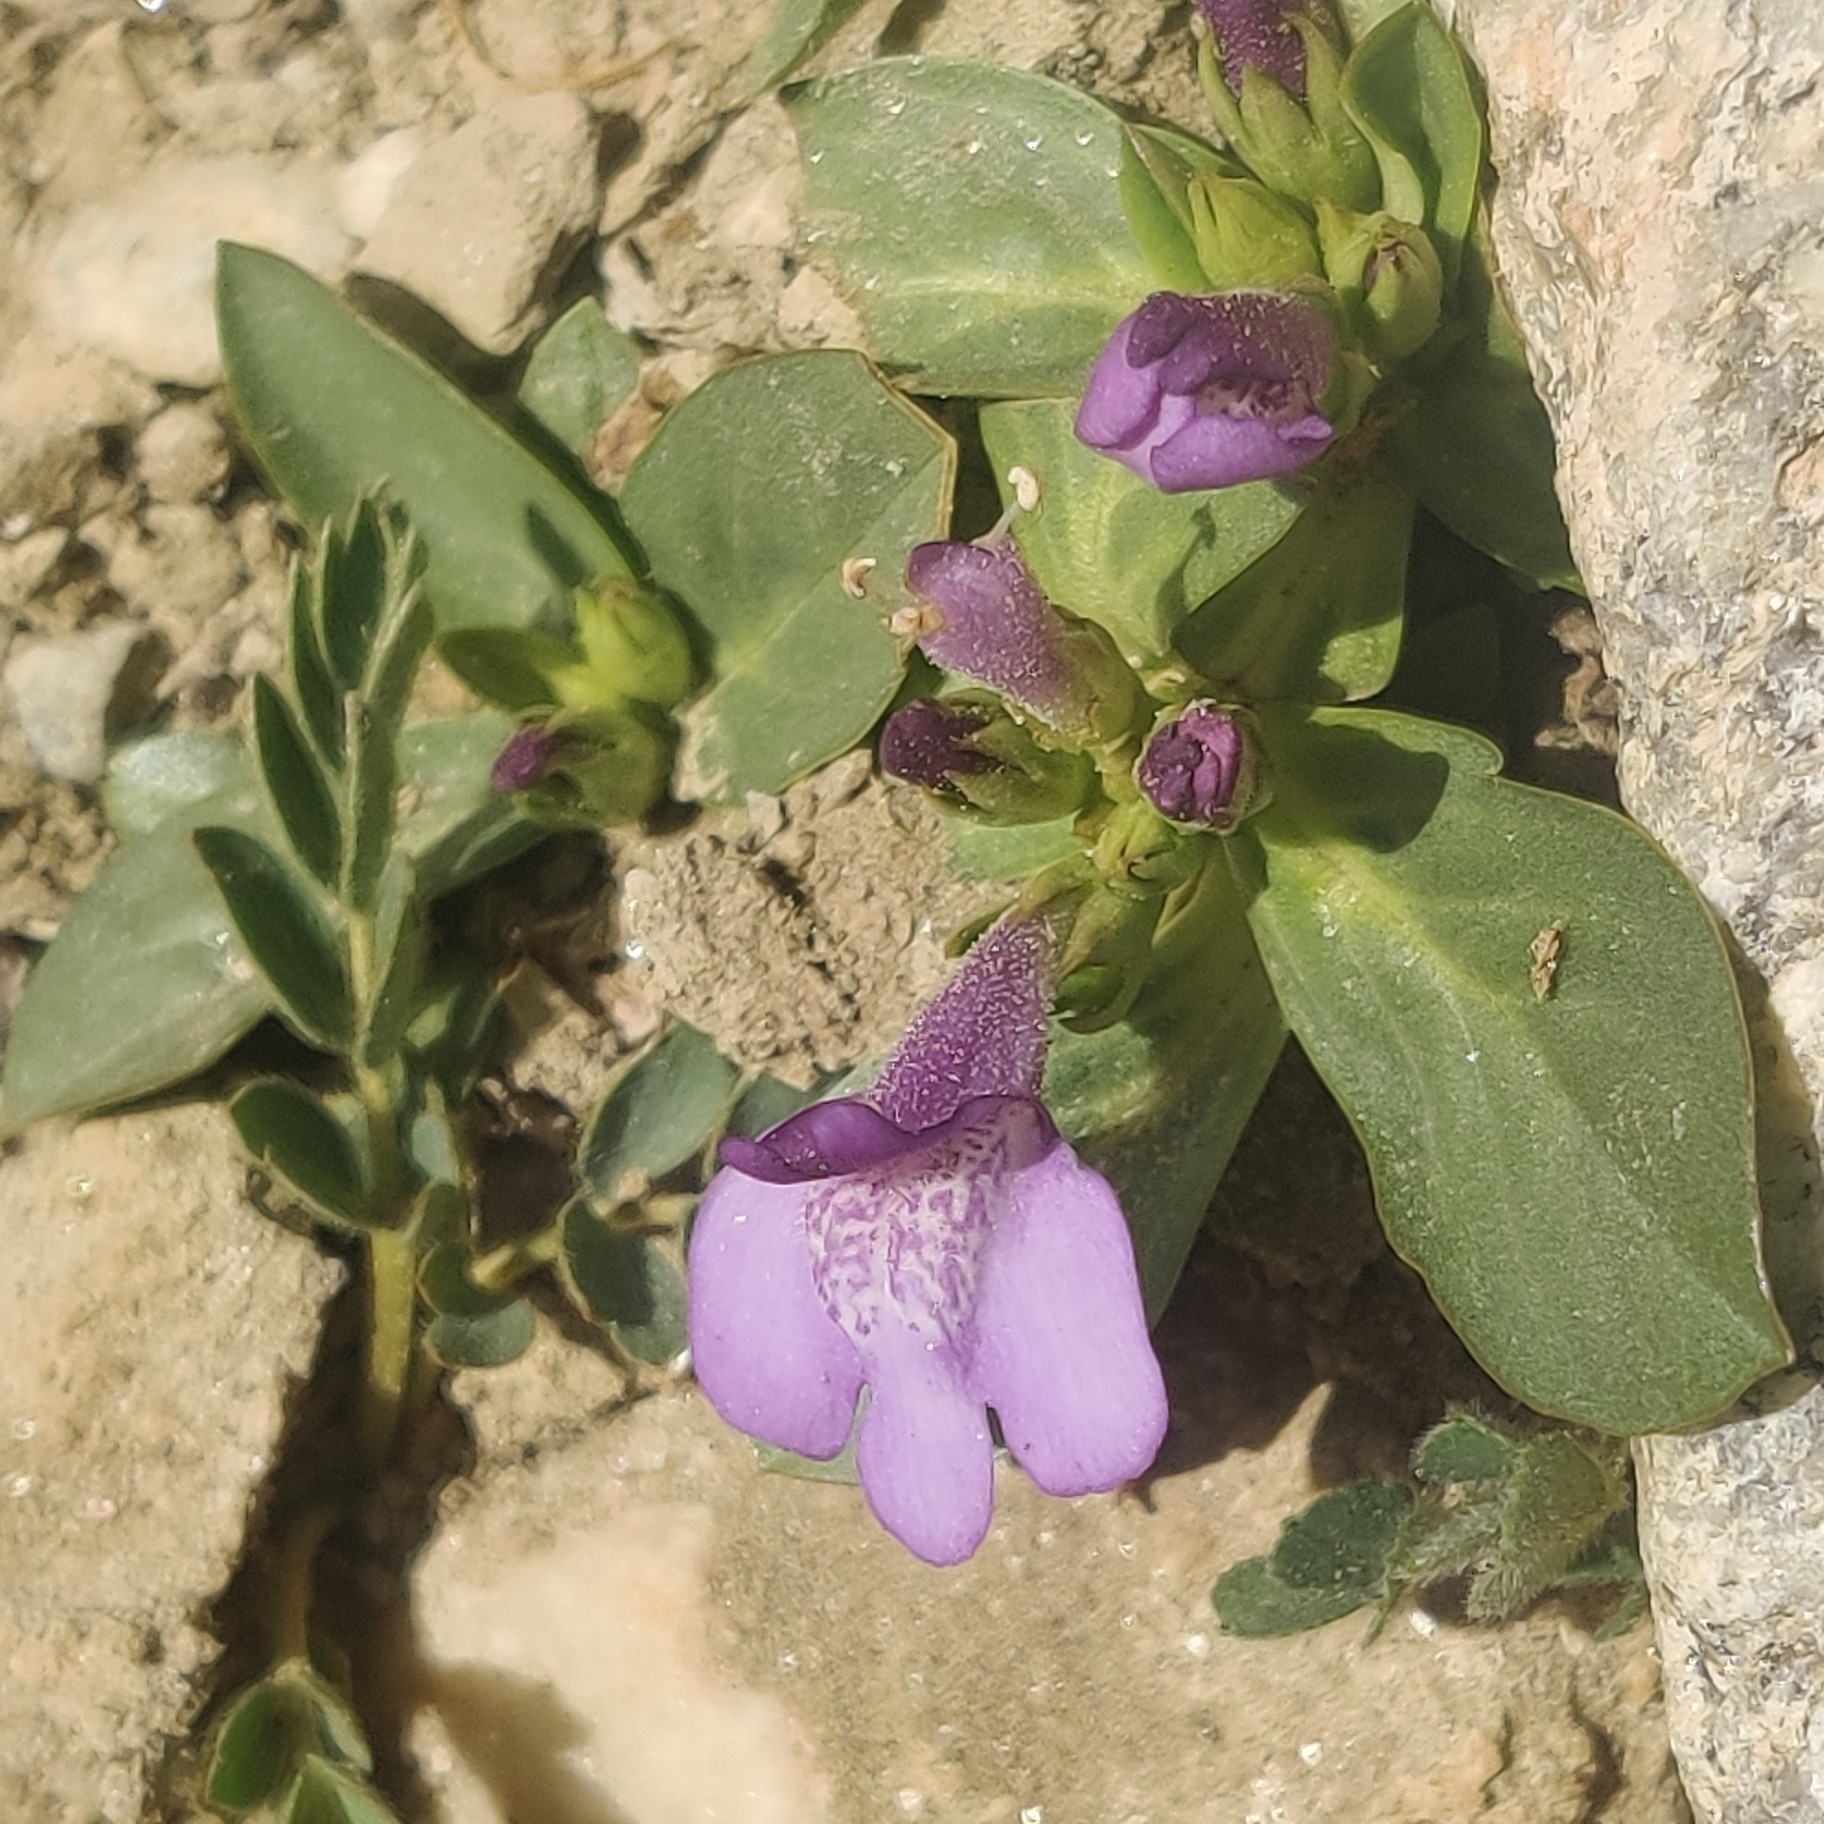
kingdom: Plantae
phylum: Tracheophyta
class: Magnoliopsida
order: Lamiales
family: Mazaceae
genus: Lancea
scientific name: Lancea tibetica
